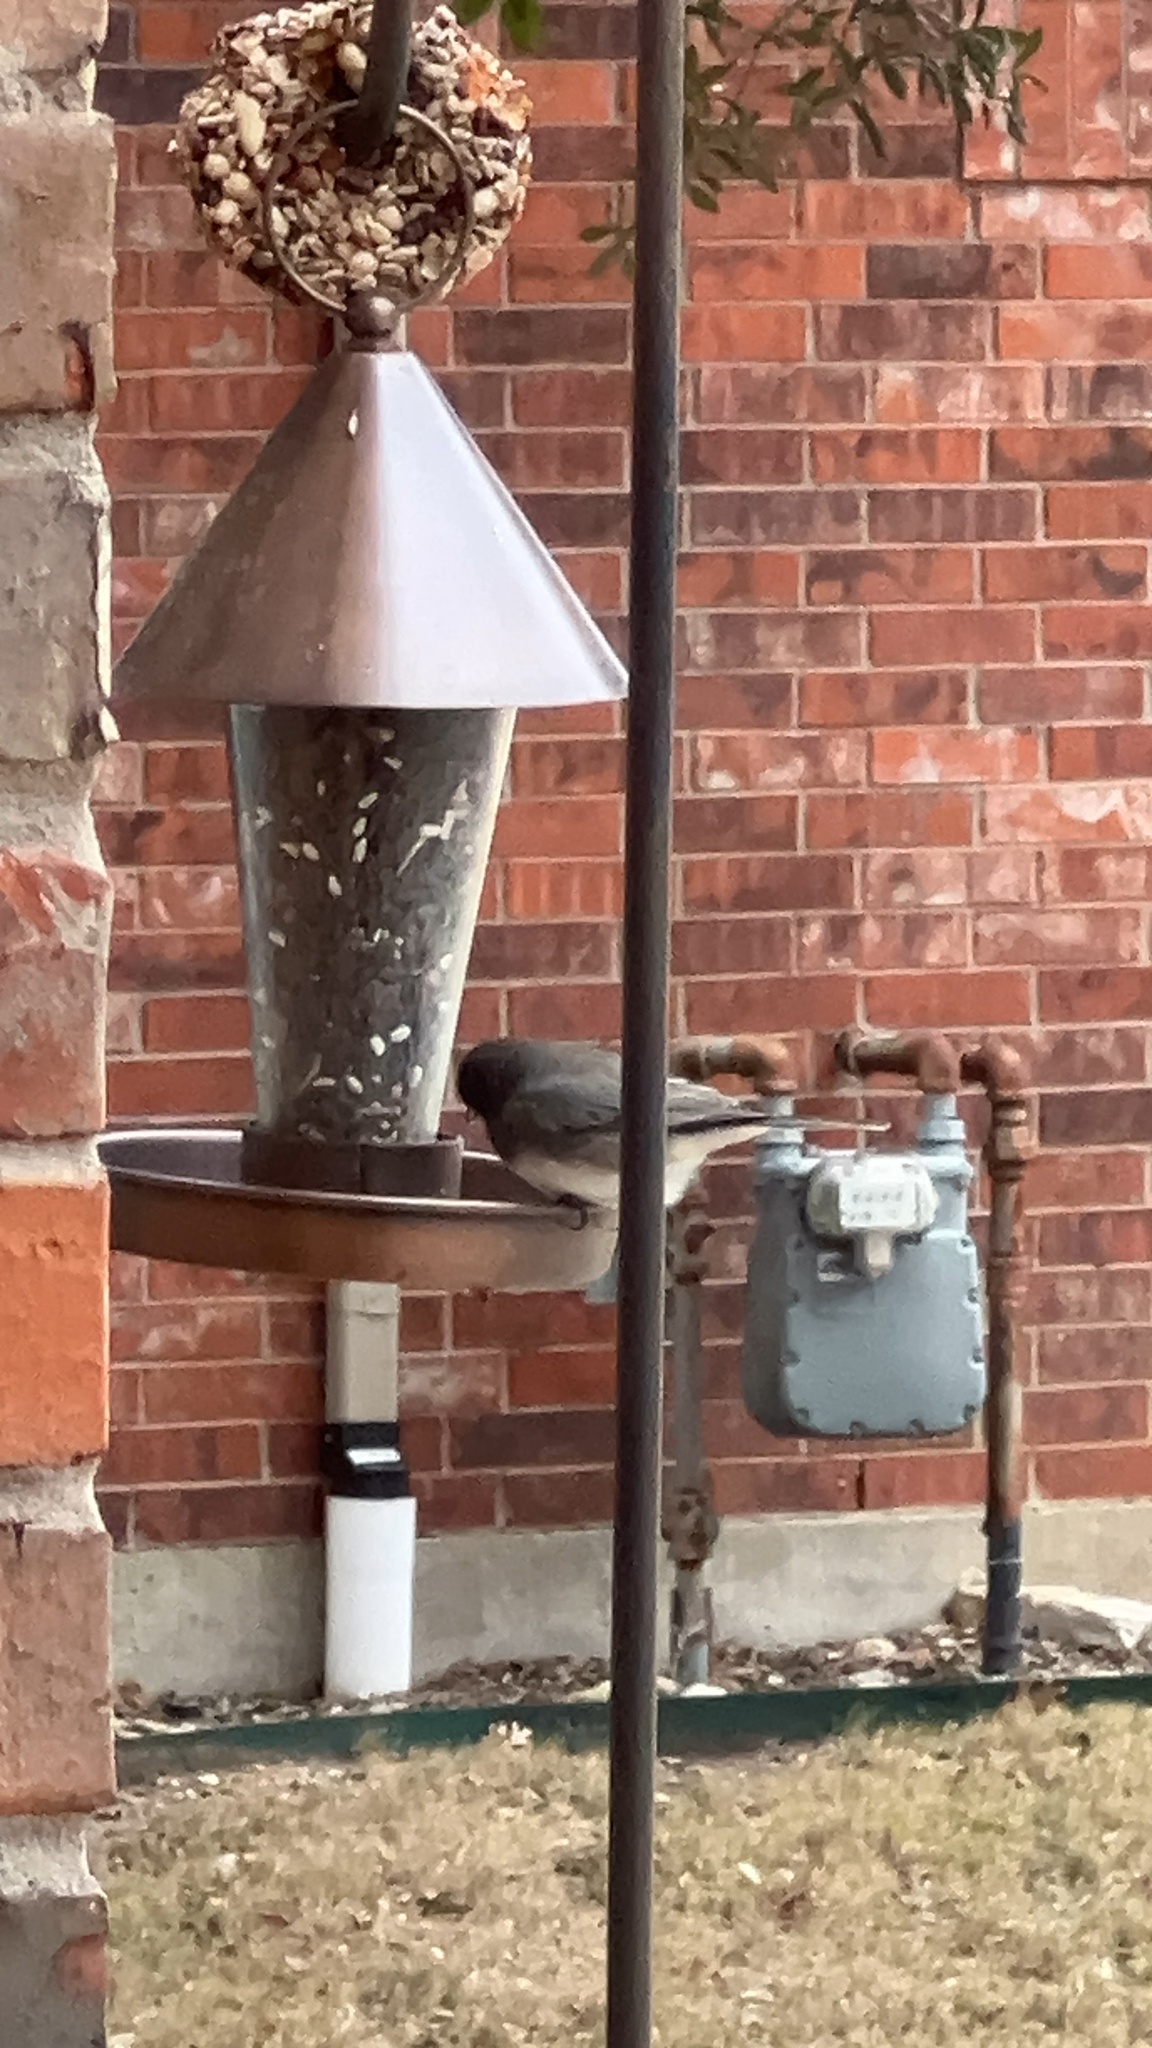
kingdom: Animalia
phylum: Chordata
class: Aves
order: Passeriformes
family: Passerellidae
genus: Junco
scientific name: Junco hyemalis
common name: Dark-eyed junco
